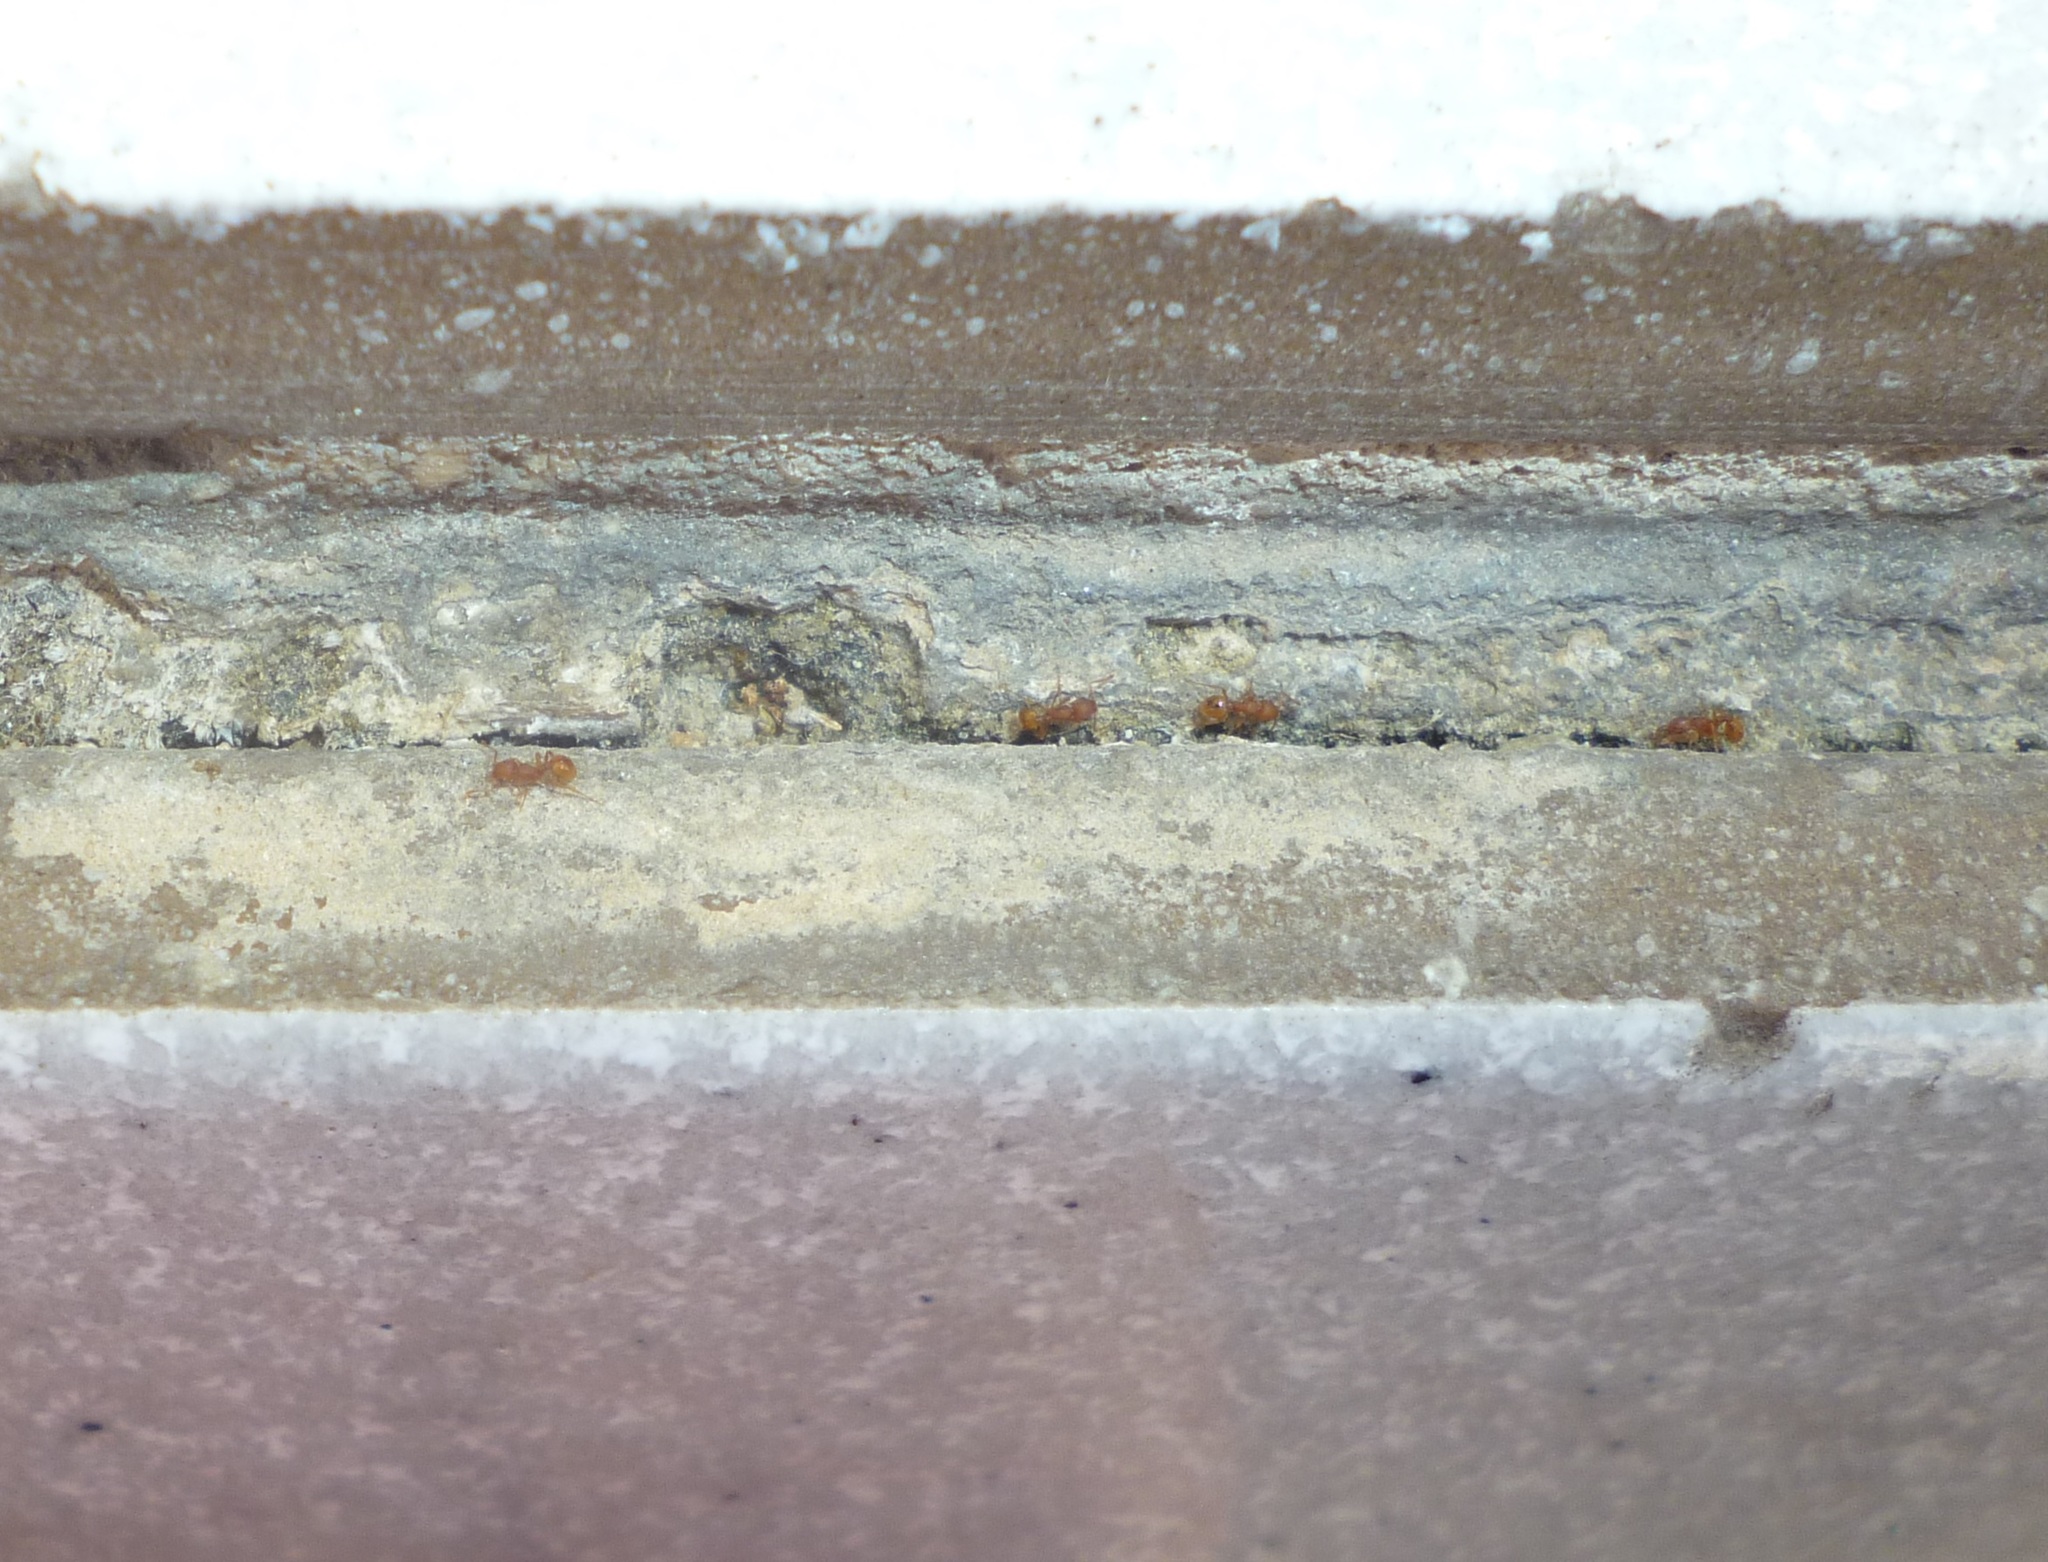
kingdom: Animalia
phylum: Arthropoda
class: Insecta
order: Hymenoptera
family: Formicidae
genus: Wasmannia
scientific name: Wasmannia auropunctata
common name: Little fire ant
